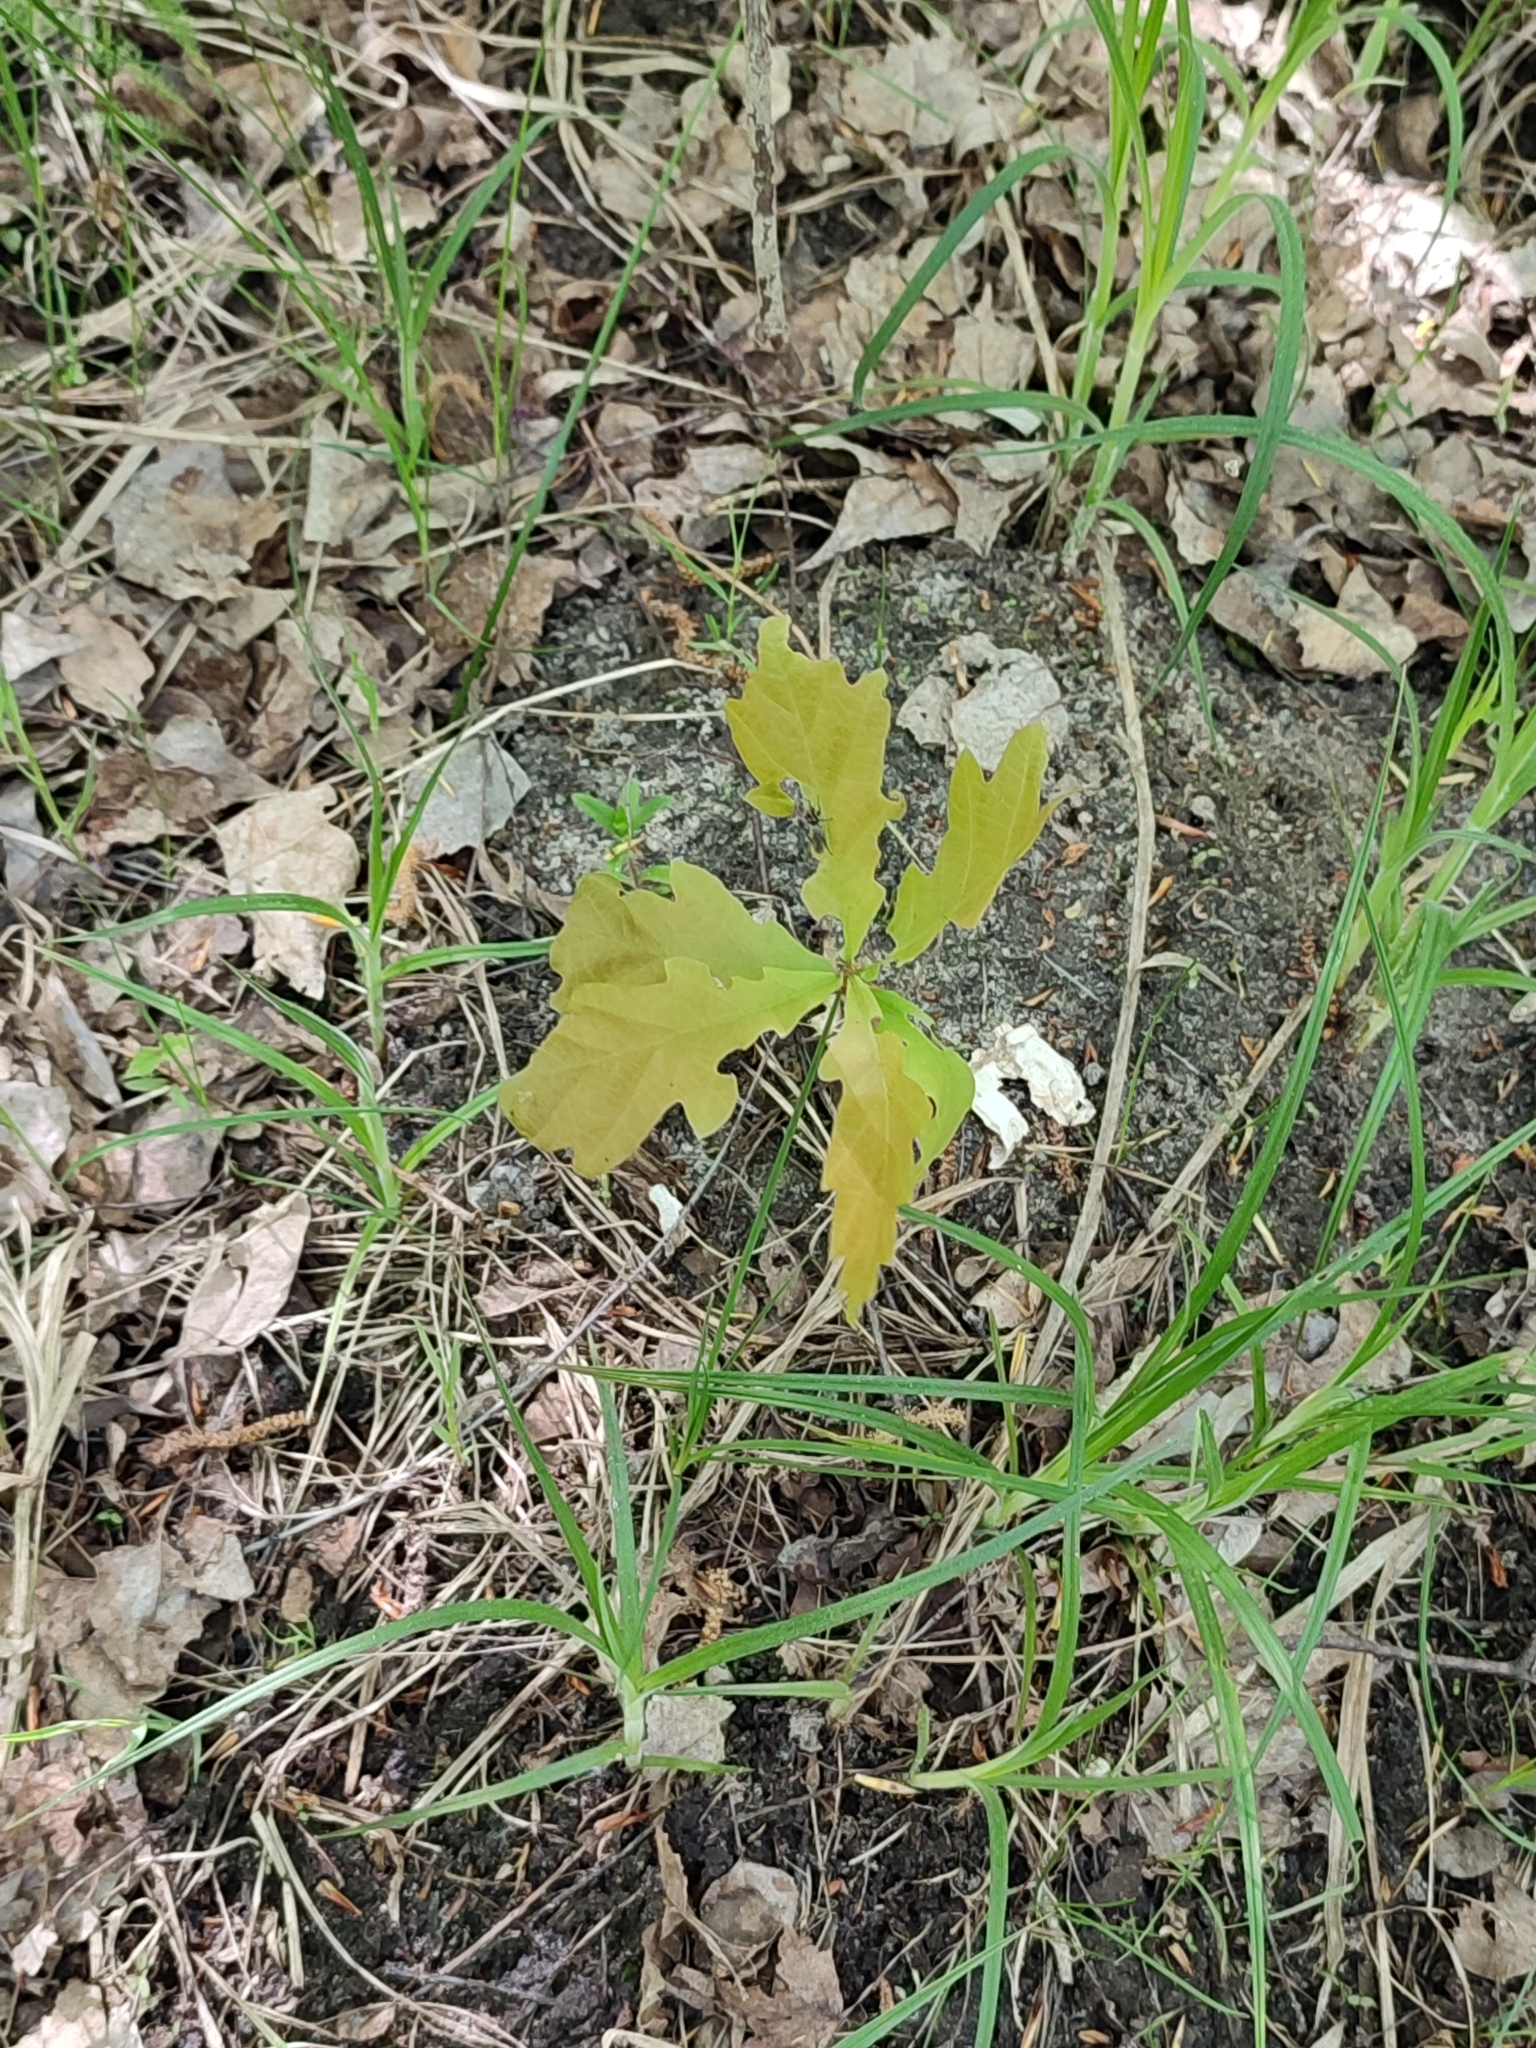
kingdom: Plantae
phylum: Tracheophyta
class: Magnoliopsida
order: Fagales
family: Fagaceae
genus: Quercus
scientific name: Quercus robur
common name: Pedunculate oak
